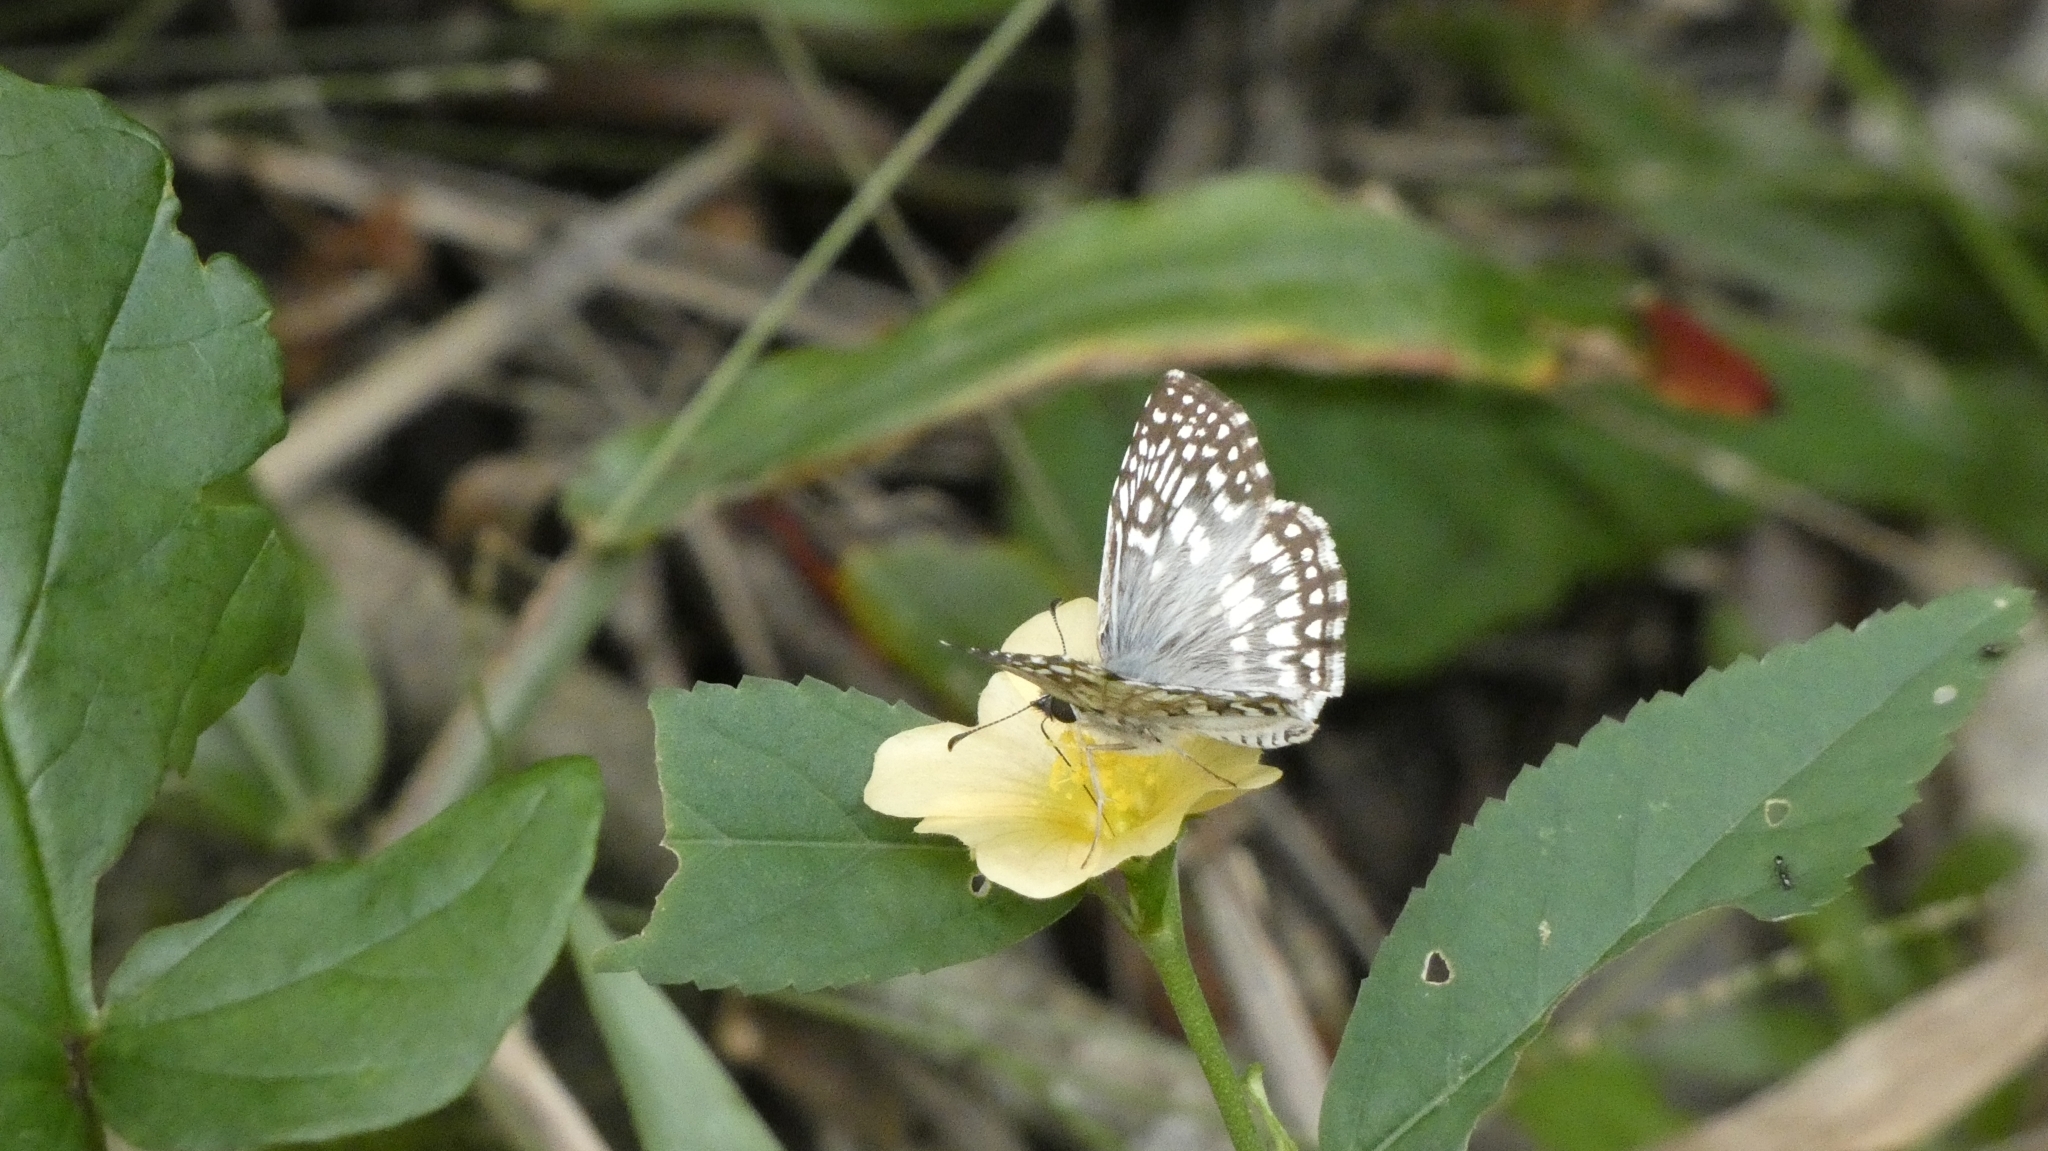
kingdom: Animalia
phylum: Arthropoda
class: Insecta
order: Lepidoptera
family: Hesperiidae
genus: Pyrgus
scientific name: Pyrgus oileus
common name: Tropical checkered-skipper
